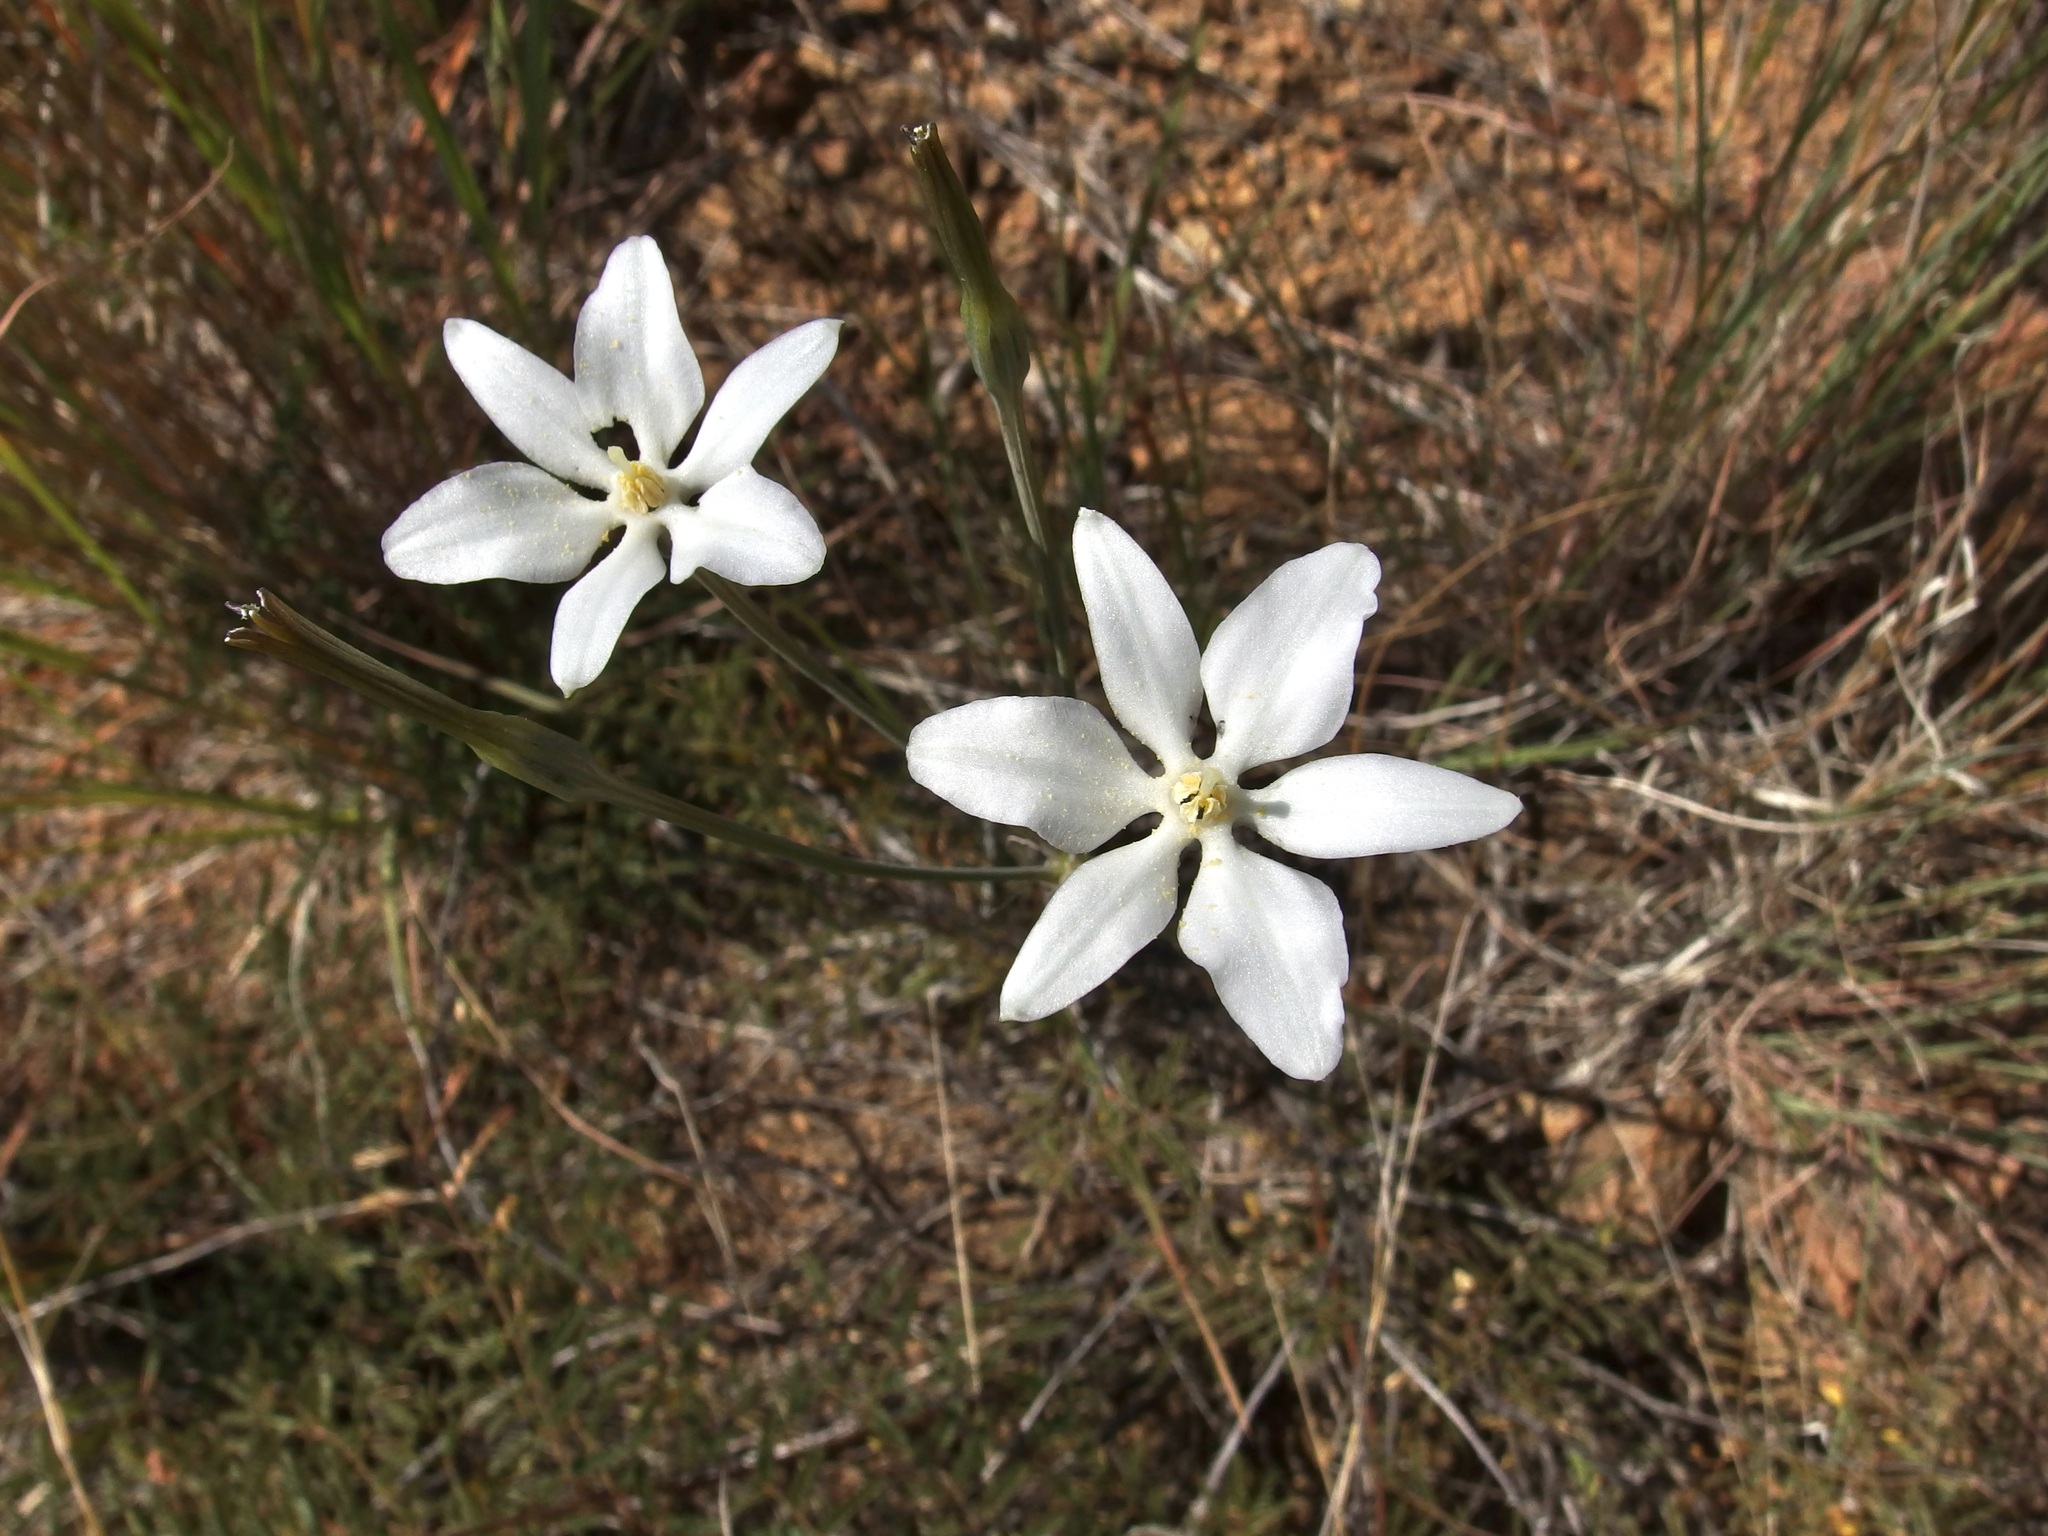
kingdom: Plantae
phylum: Tracheophyta
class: Liliopsida
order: Asparagales
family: Asparagaceae
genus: Milla
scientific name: Milla biflora
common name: Mexican-star
